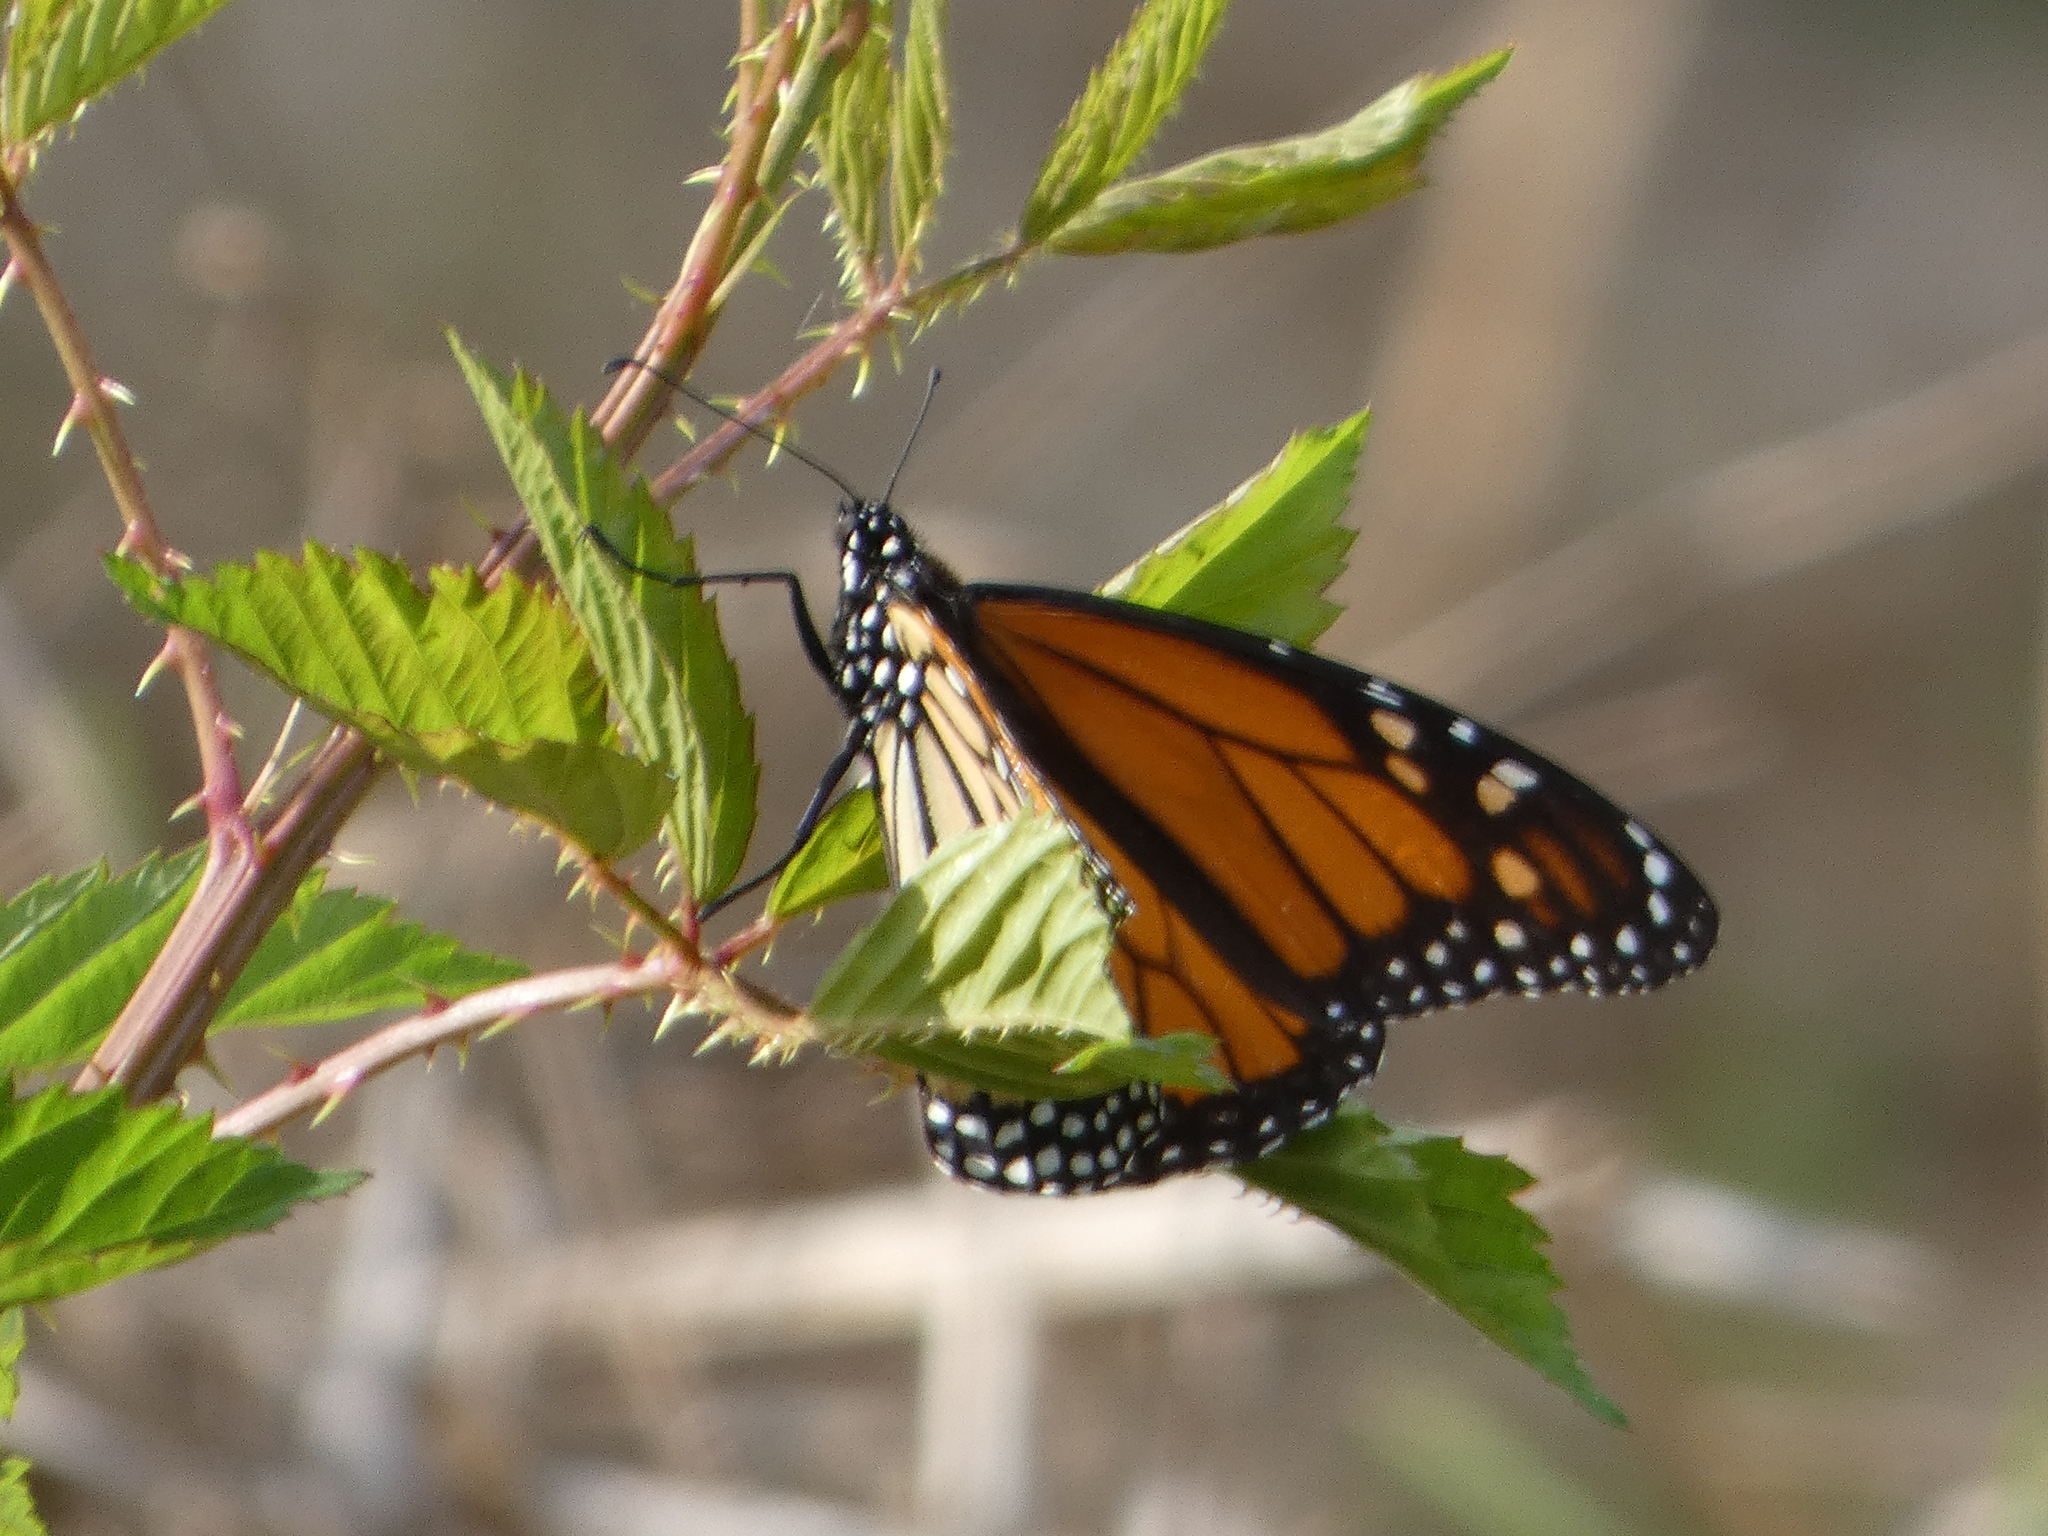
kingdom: Animalia
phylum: Arthropoda
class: Insecta
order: Lepidoptera
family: Nymphalidae
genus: Danaus
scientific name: Danaus plexippus
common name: Monarch
